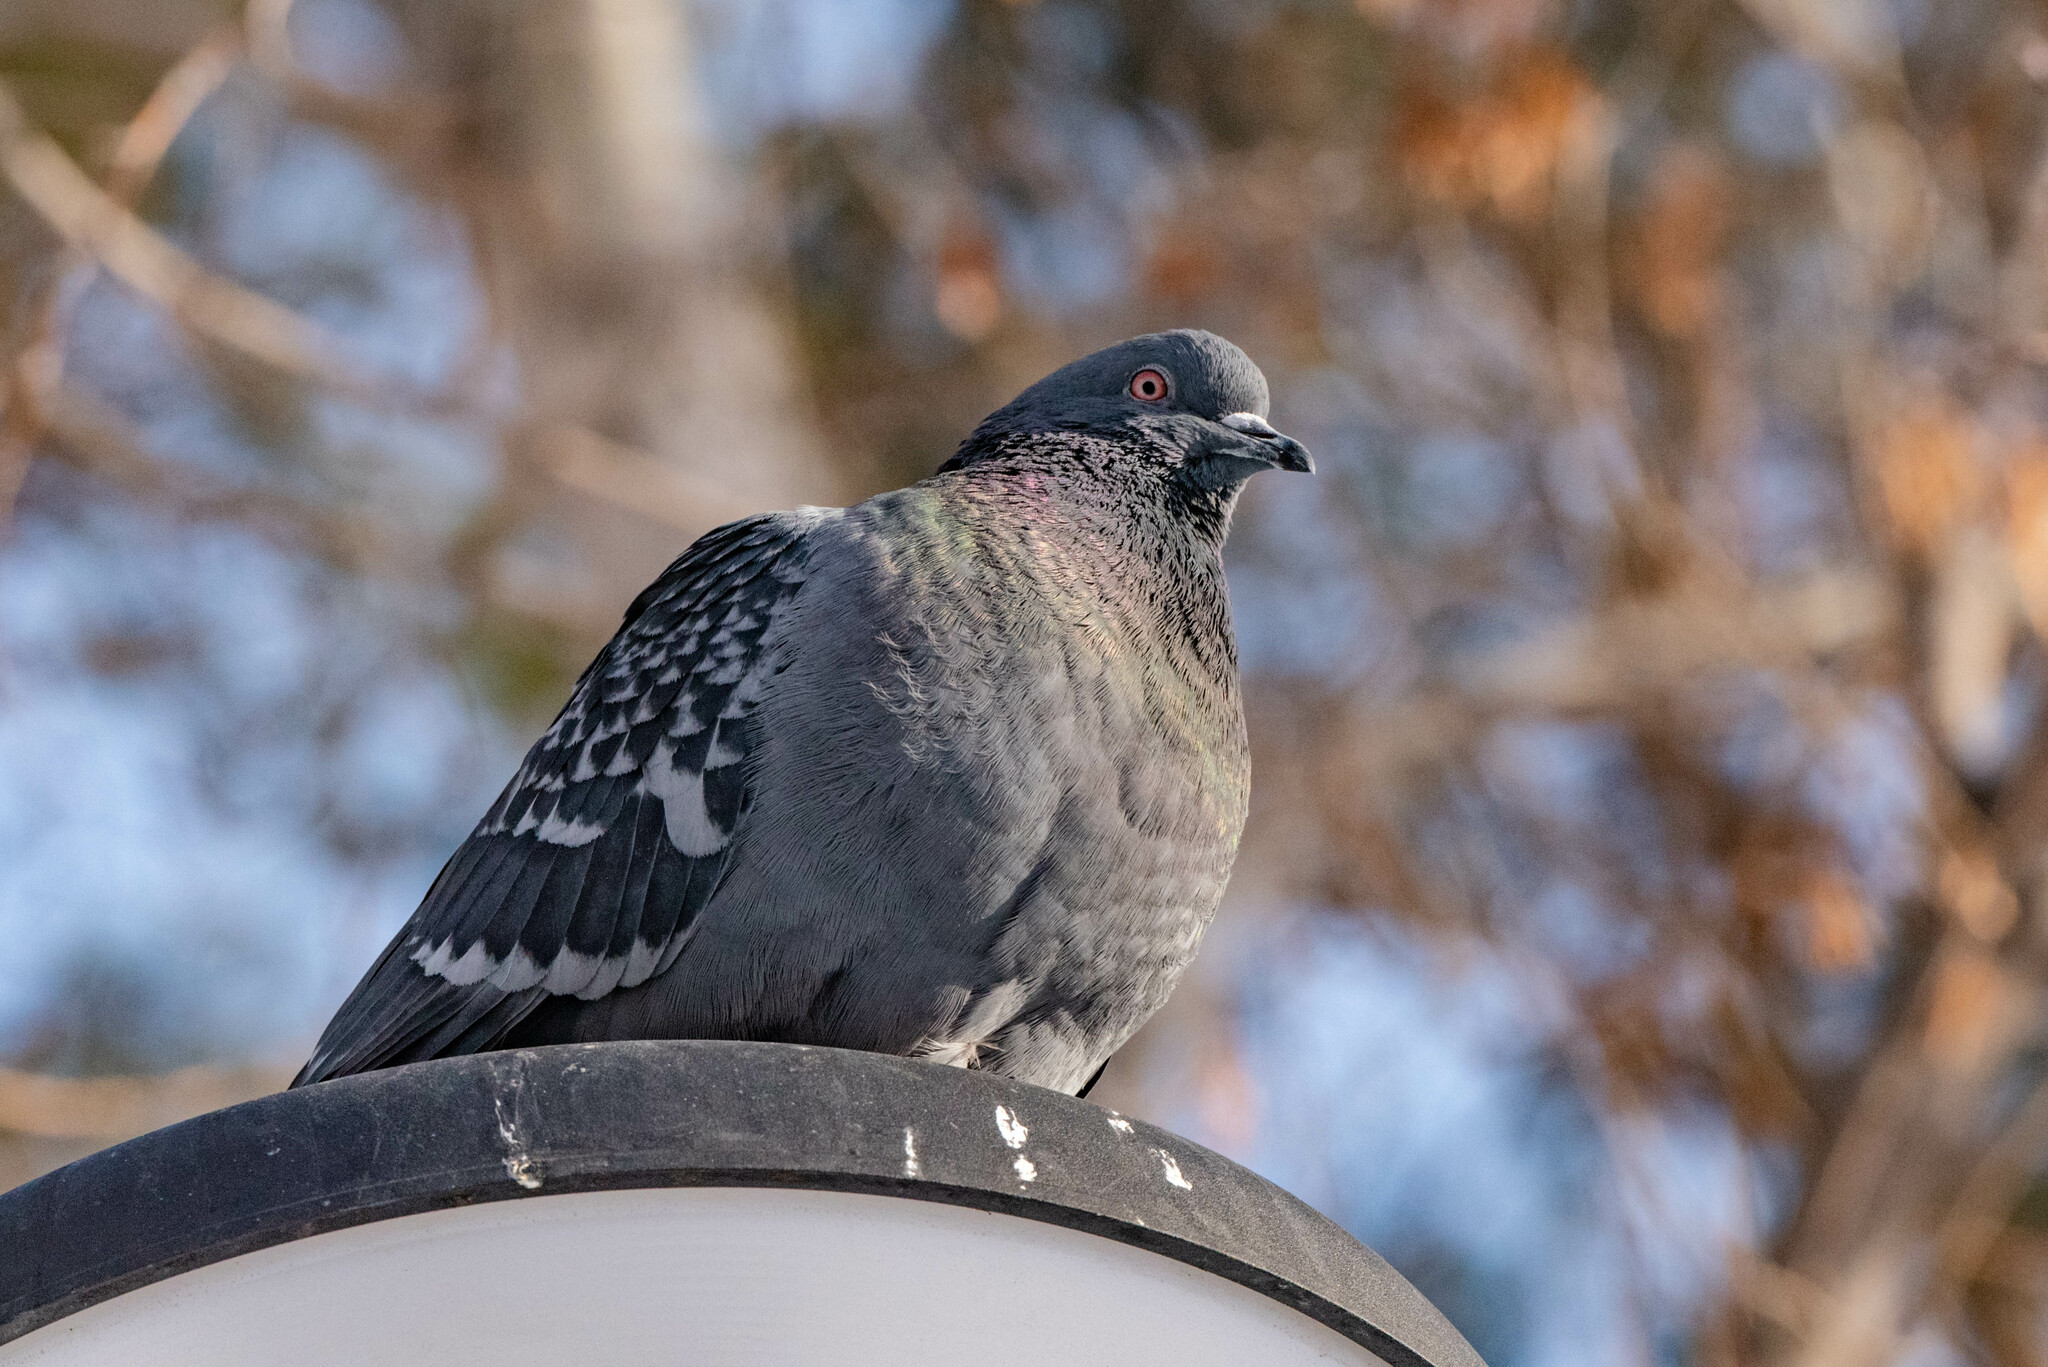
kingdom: Animalia
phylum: Chordata
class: Aves
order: Columbiformes
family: Columbidae
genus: Columba
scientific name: Columba livia
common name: Rock pigeon
